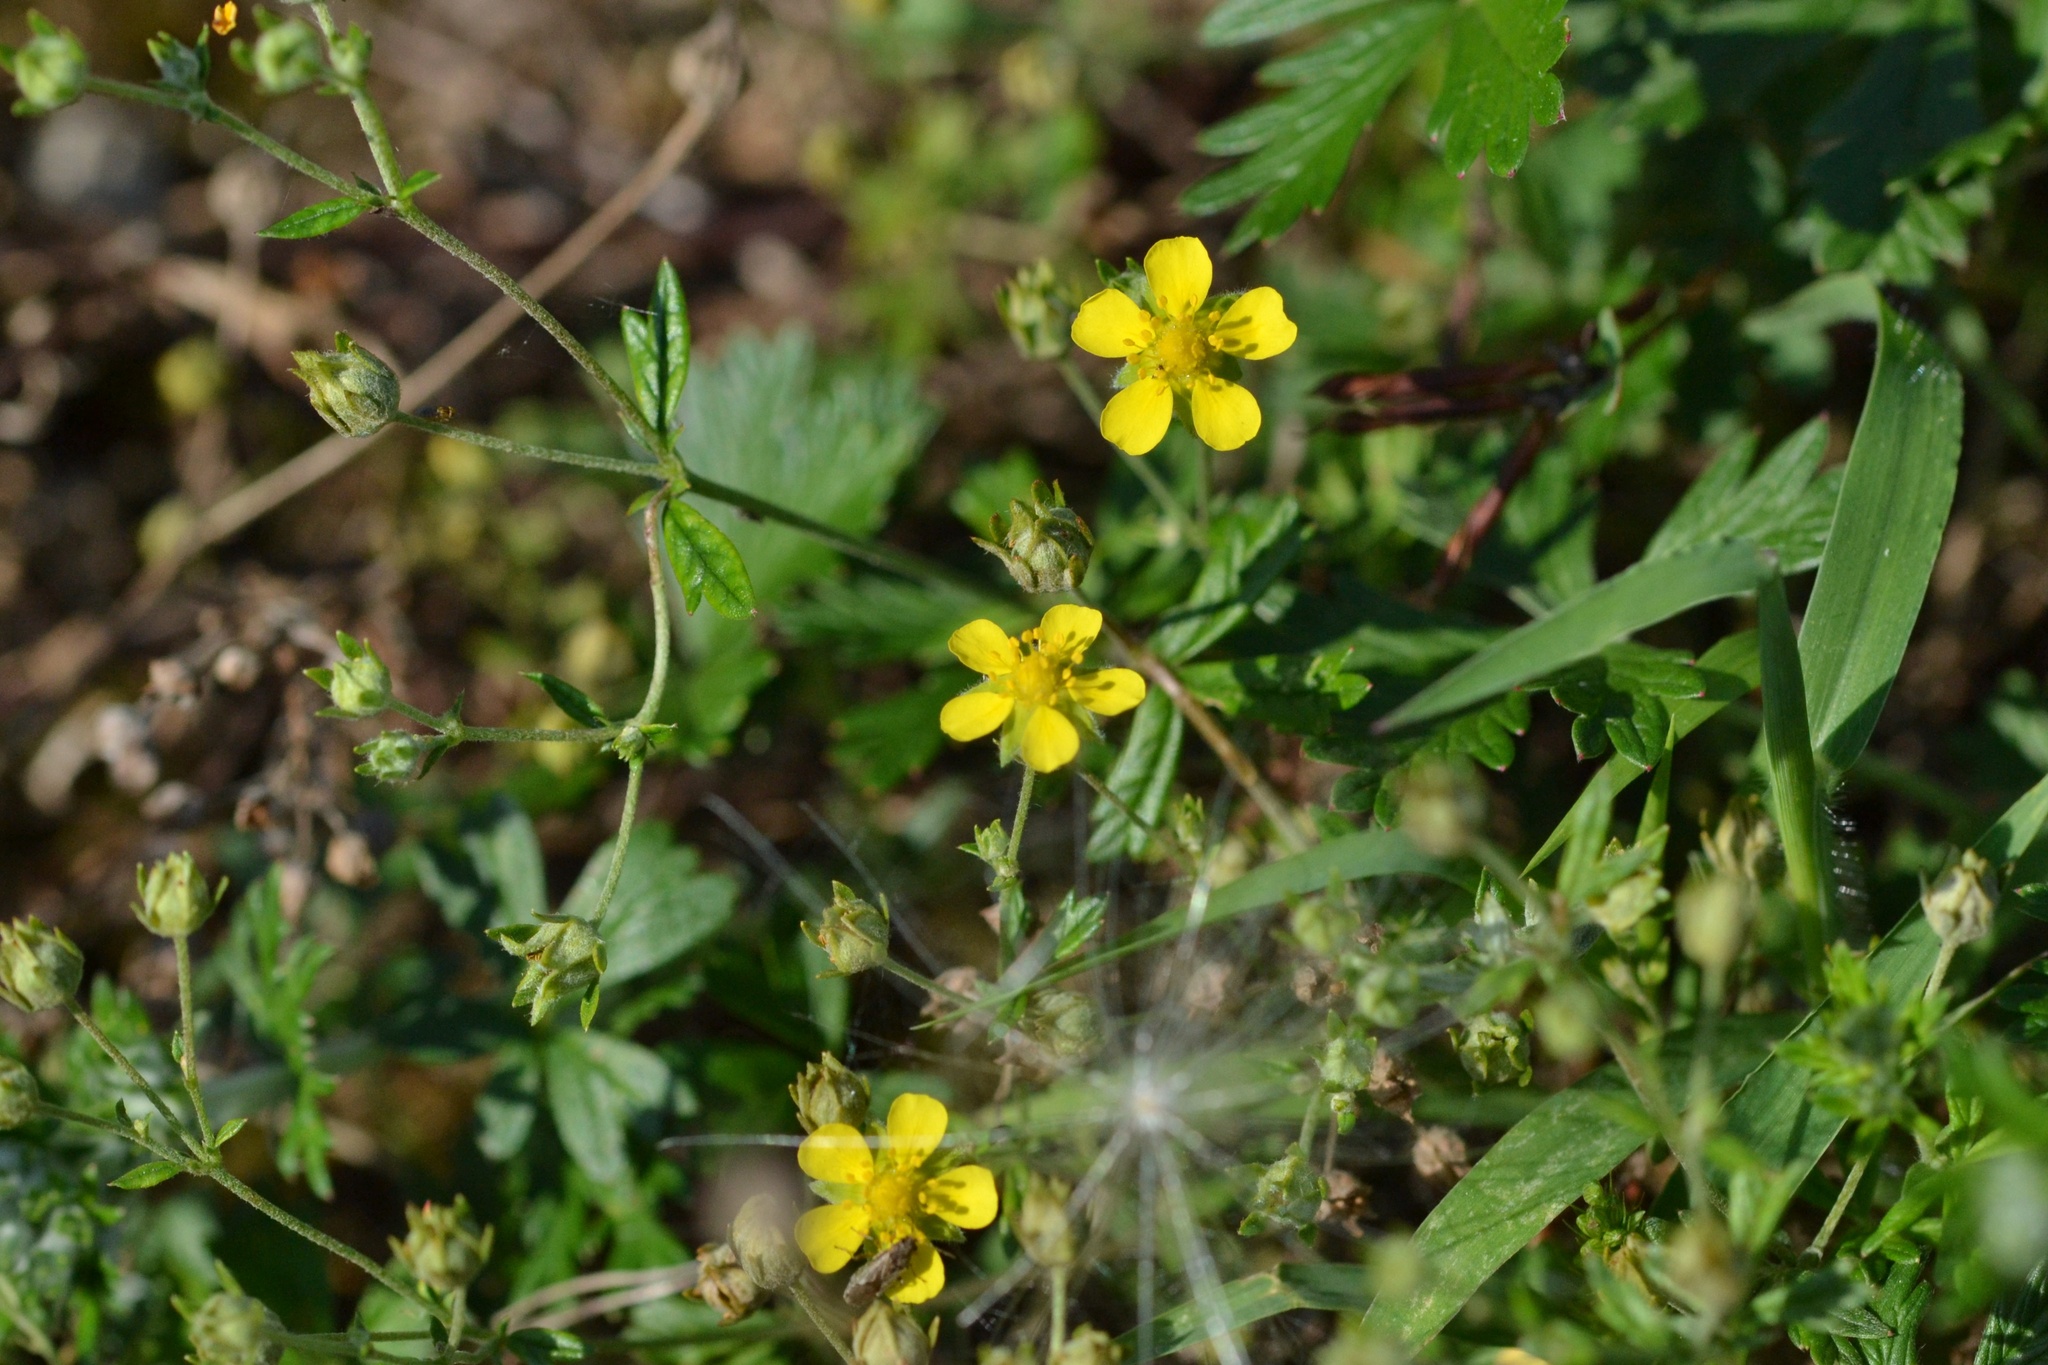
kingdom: Plantae
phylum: Tracheophyta
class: Magnoliopsida
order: Rosales
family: Rosaceae
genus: Potentilla
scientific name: Potentilla argentea
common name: Hoary cinquefoil
